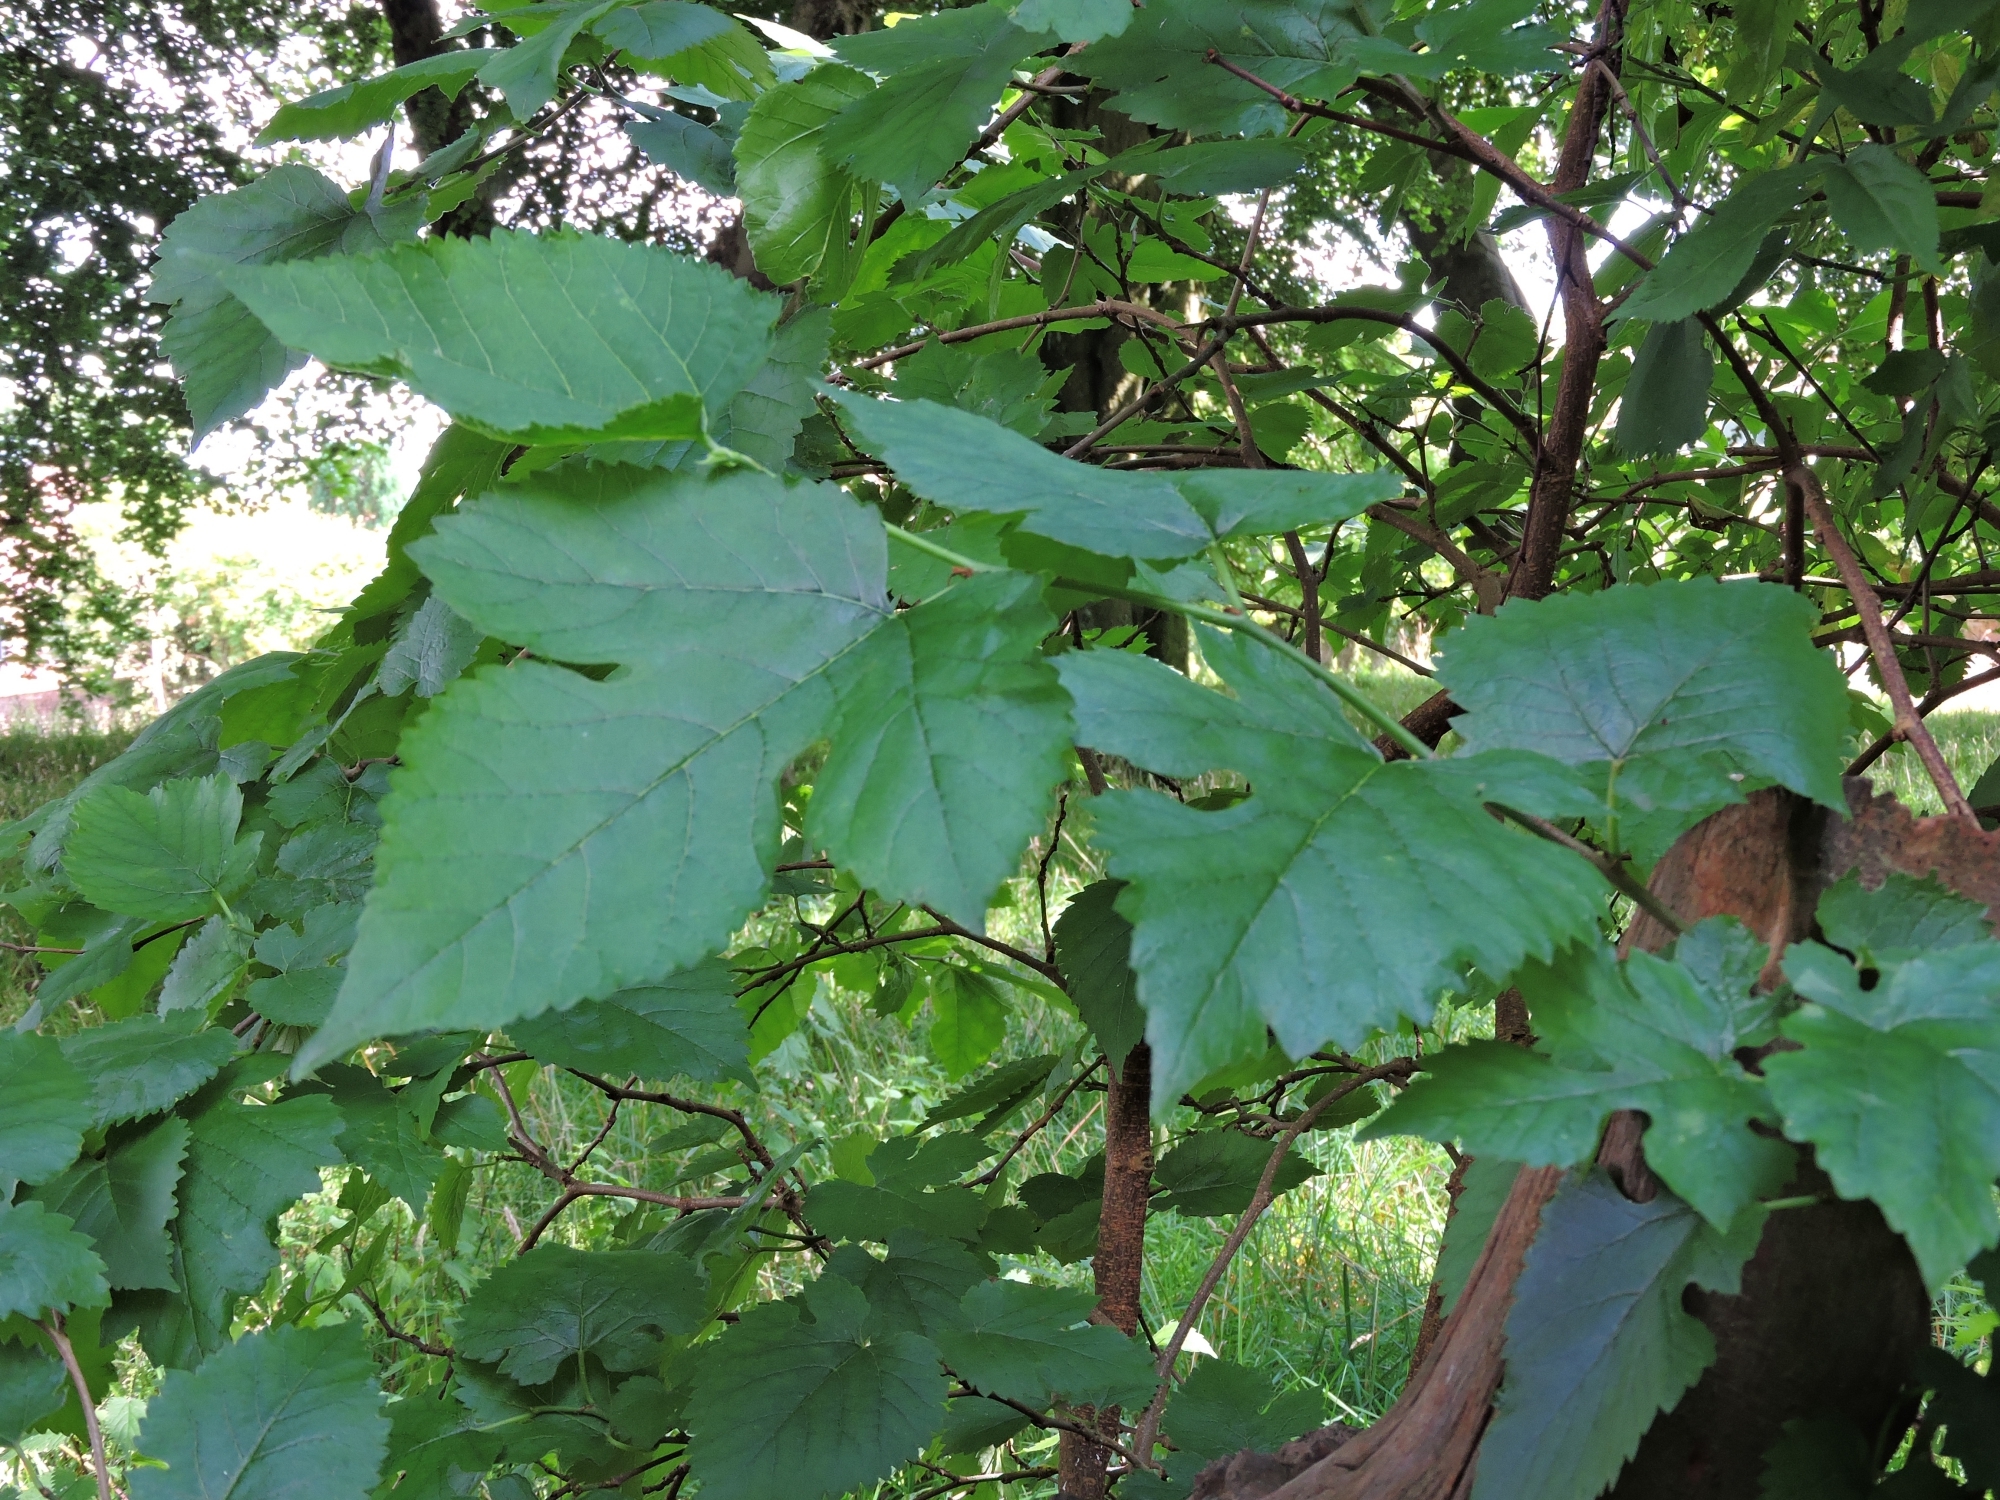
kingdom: Plantae
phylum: Tracheophyta
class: Magnoliopsida
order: Rosales
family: Moraceae
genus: Morus
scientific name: Morus nigra
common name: Black mulberry
